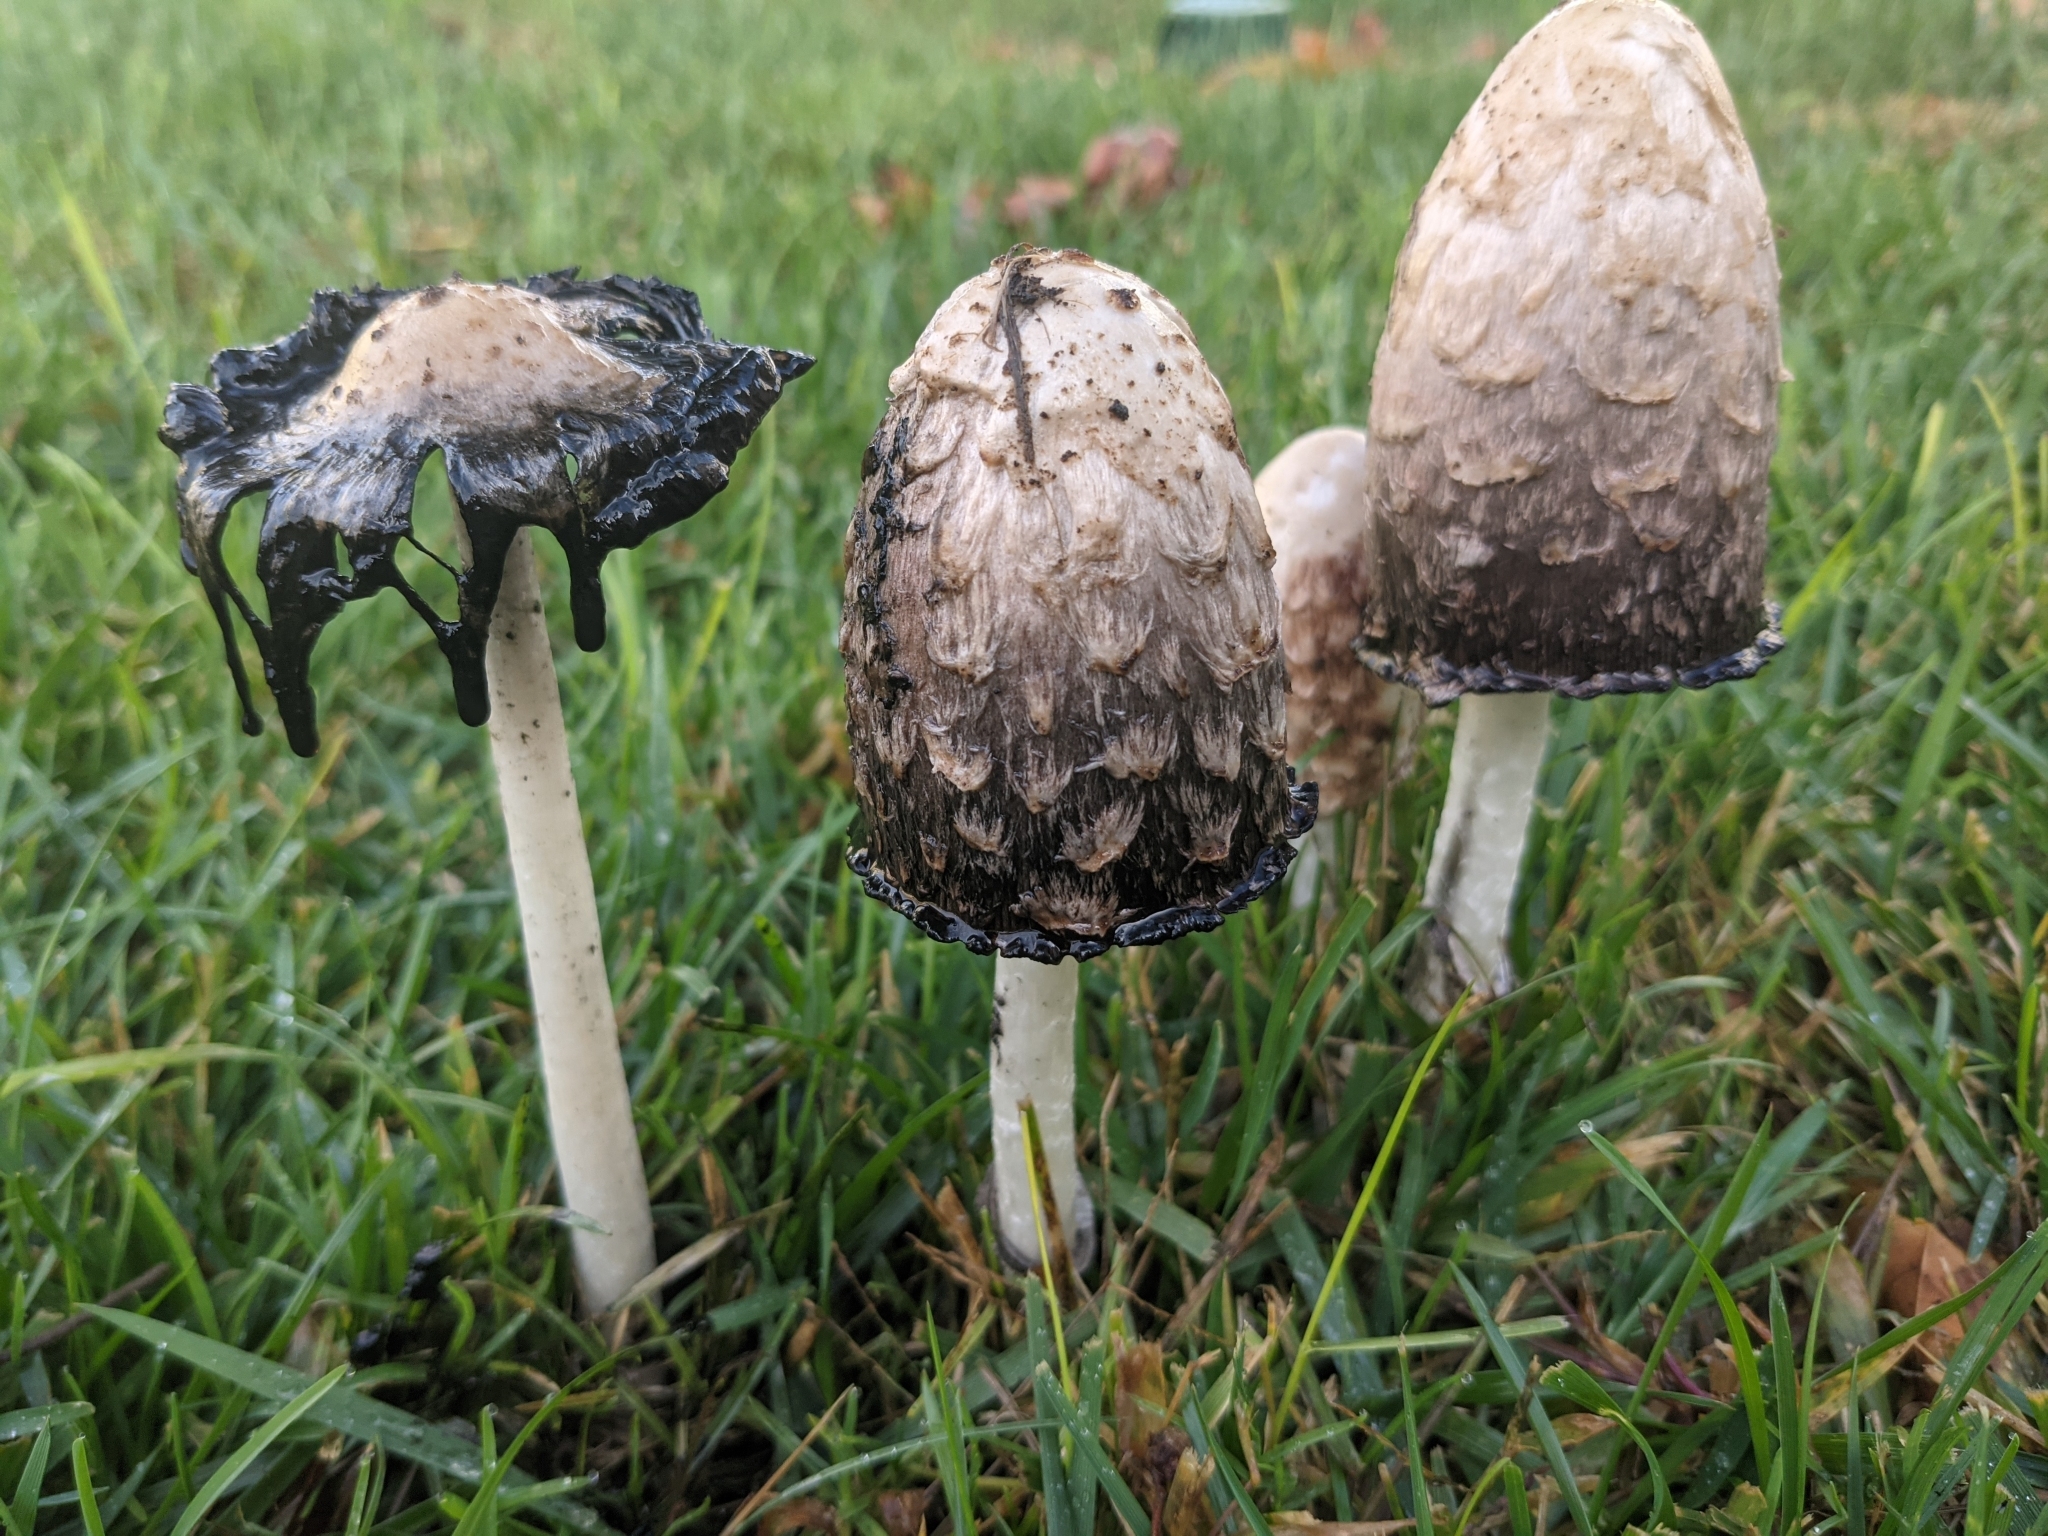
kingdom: Fungi
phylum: Basidiomycota
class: Agaricomycetes
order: Agaricales
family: Agaricaceae
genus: Coprinus
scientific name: Coprinus comatus
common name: Lawyer's wig
